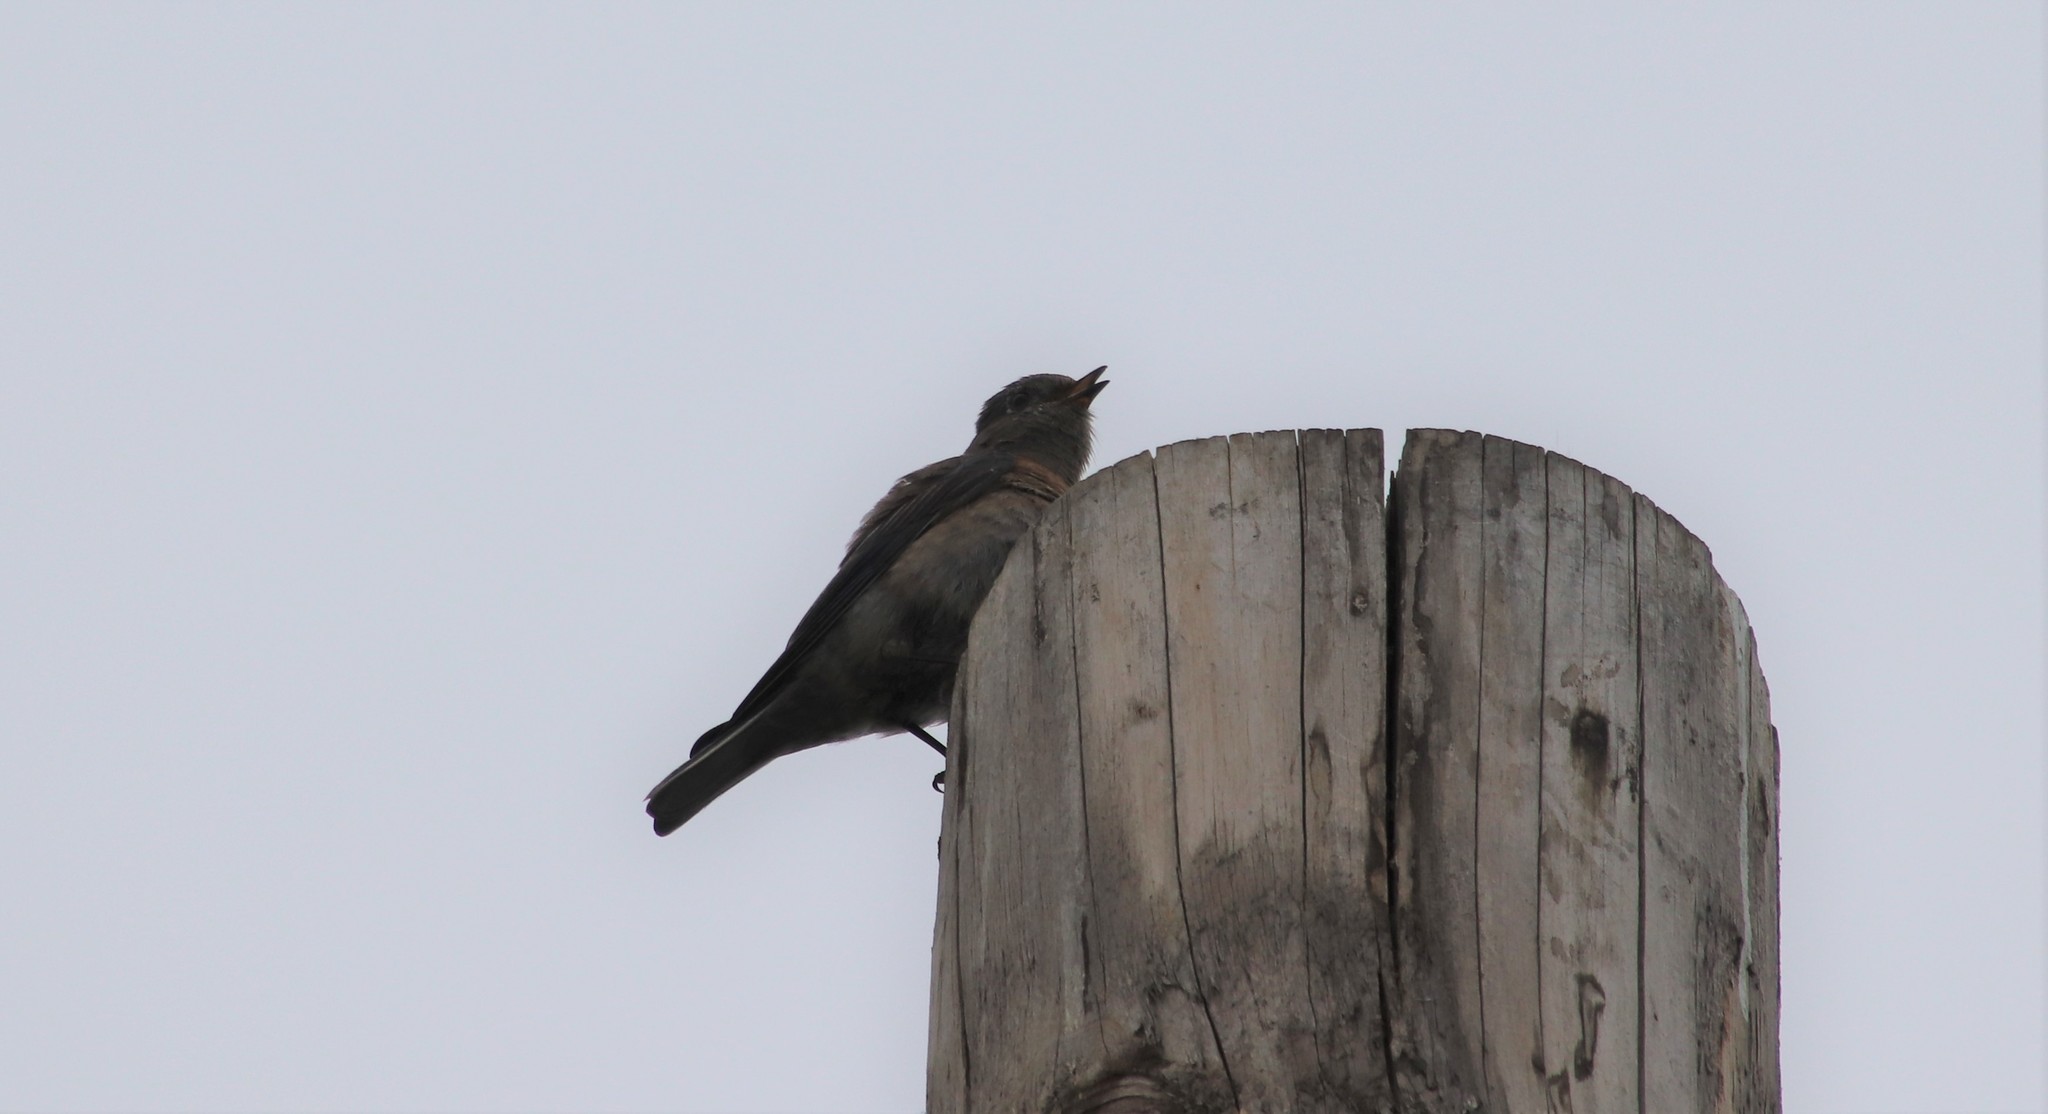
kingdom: Animalia
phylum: Chordata
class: Aves
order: Passeriformes
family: Turdidae
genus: Sialia
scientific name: Sialia mexicana
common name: Western bluebird
